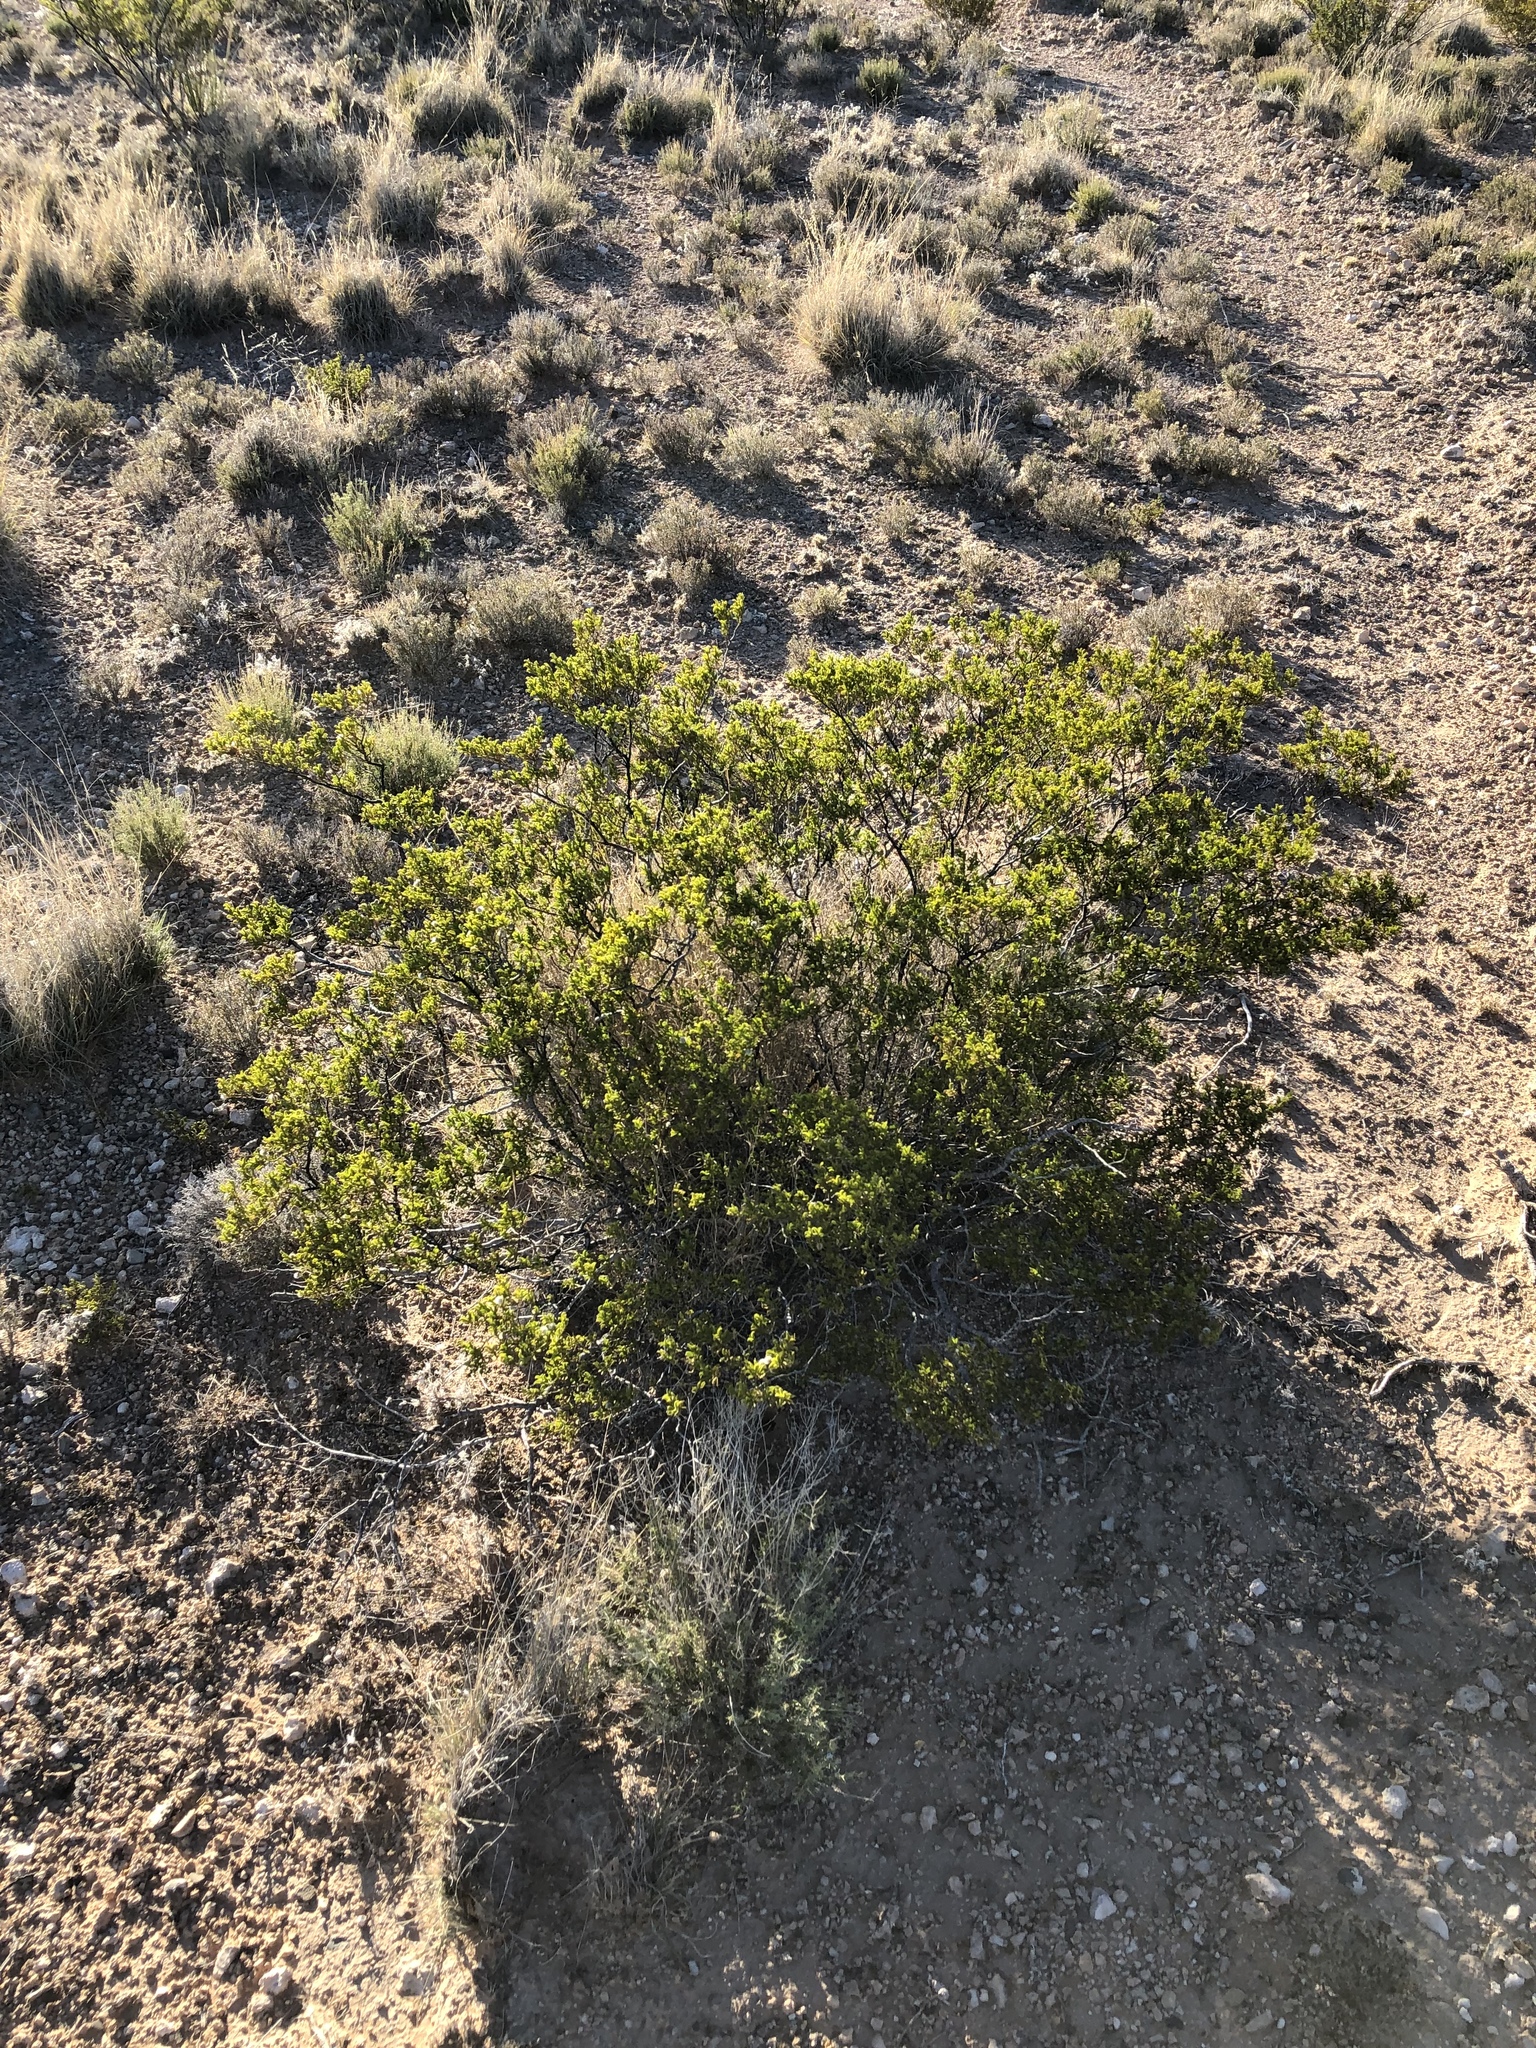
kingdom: Plantae
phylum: Tracheophyta
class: Magnoliopsida
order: Zygophyllales
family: Zygophyllaceae
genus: Larrea
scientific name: Larrea tridentata
